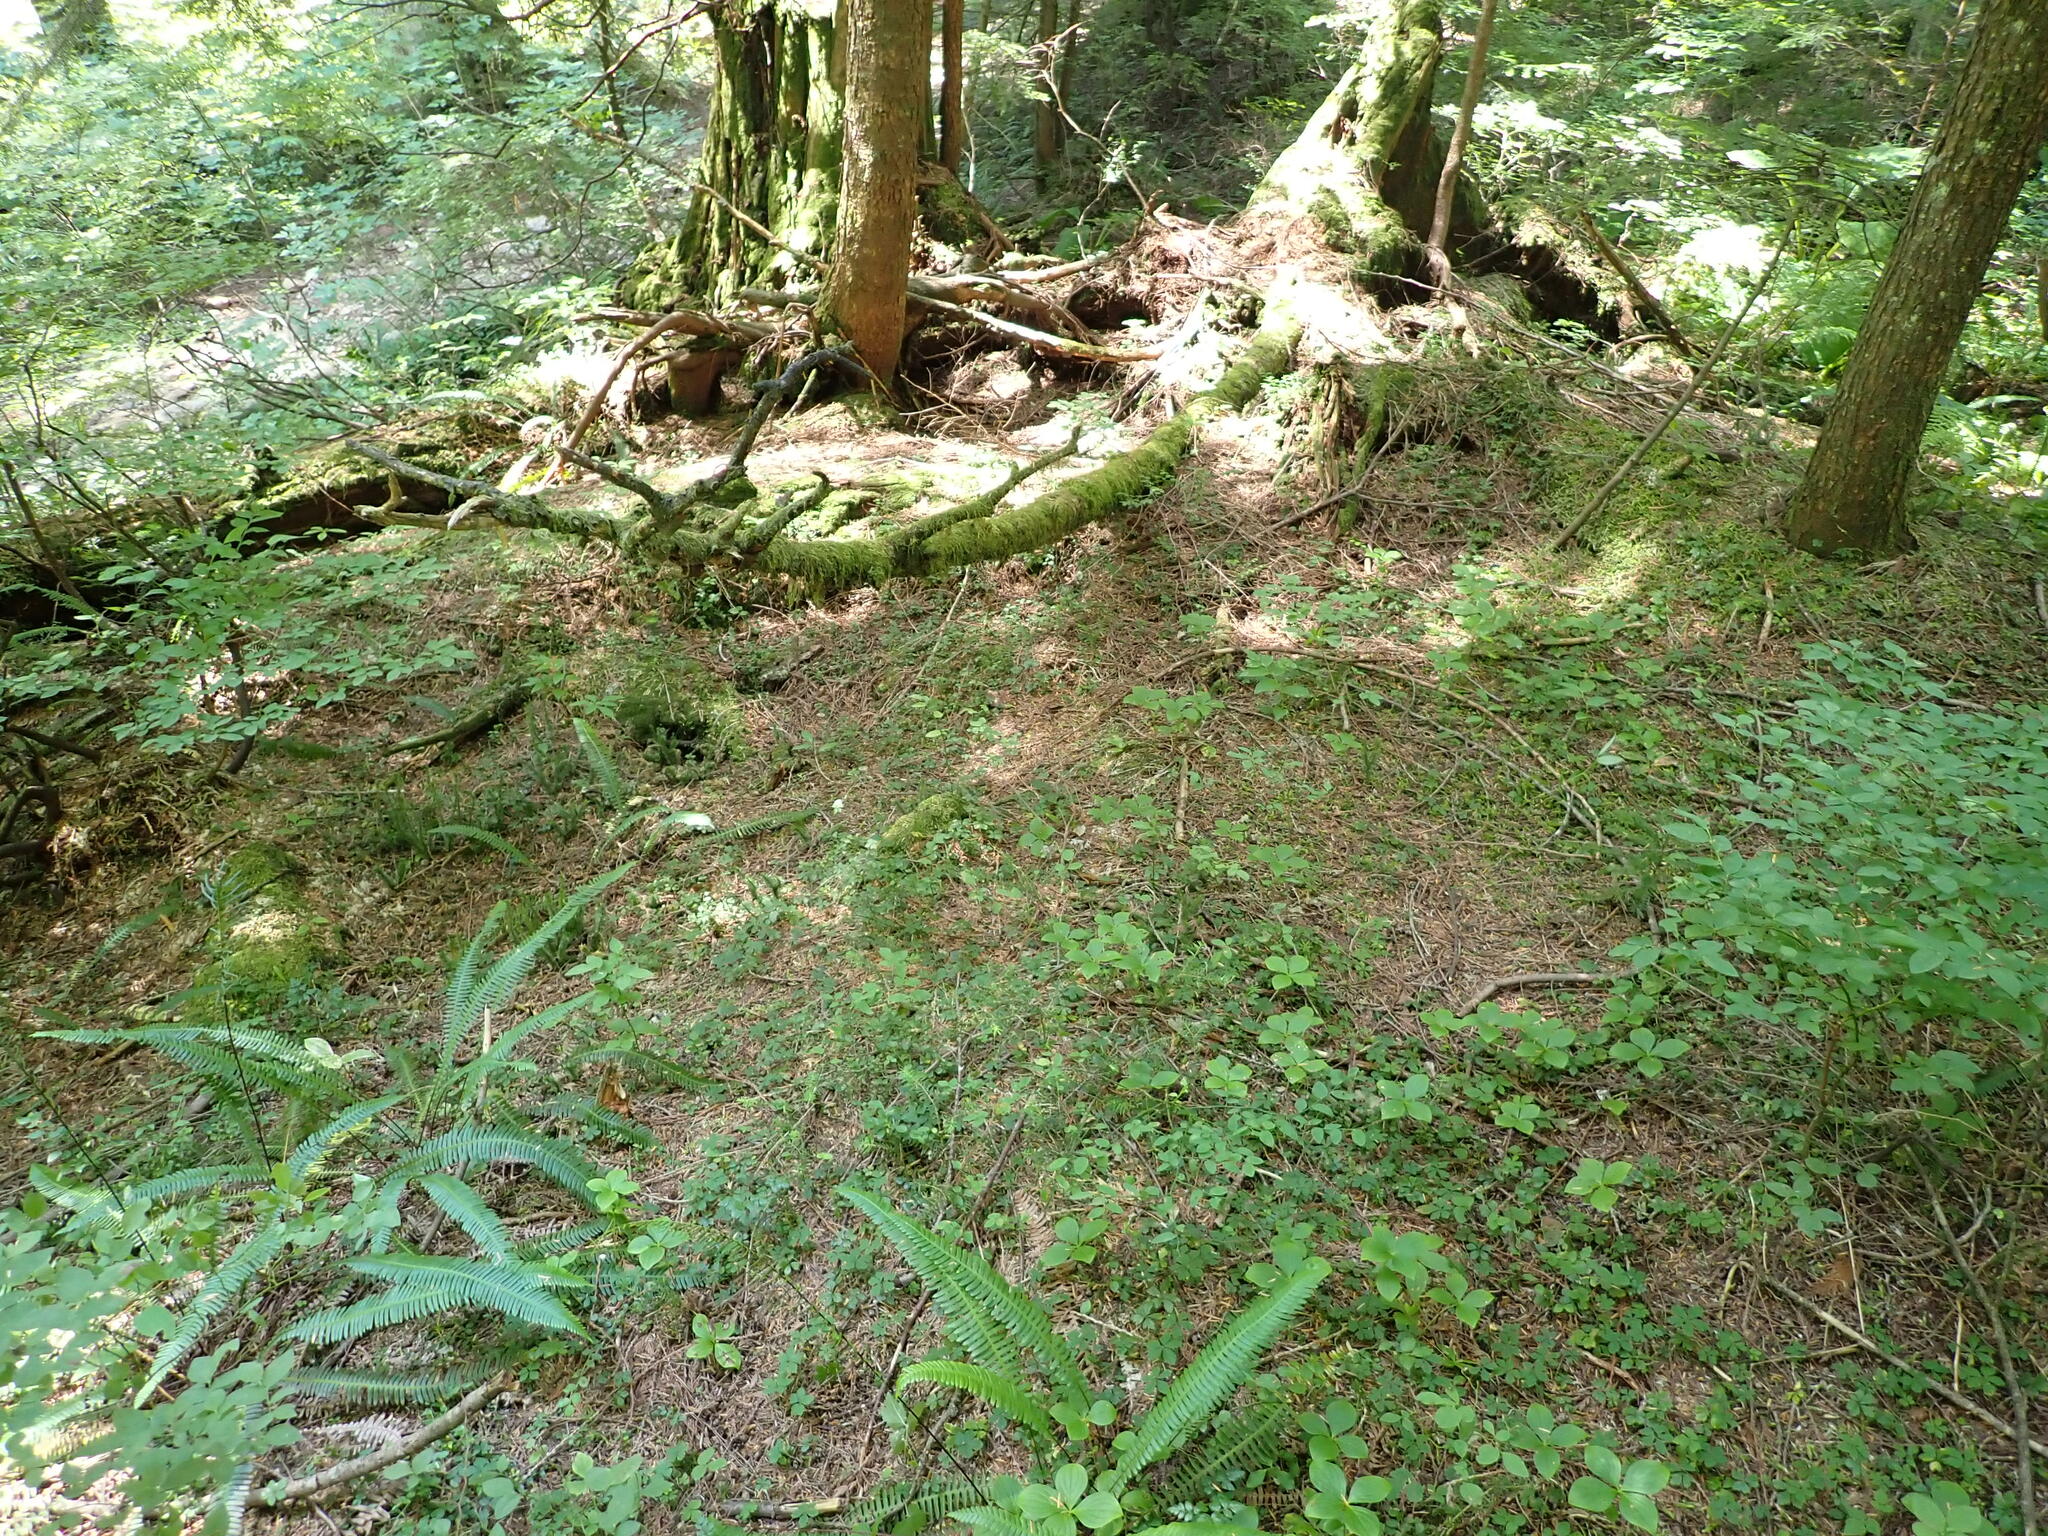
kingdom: Plantae
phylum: Tracheophyta
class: Lycopodiopsida
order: Lycopodiales
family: Lycopodiaceae
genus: Huperzia
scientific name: Huperzia occidentalis
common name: Western clubmoss
